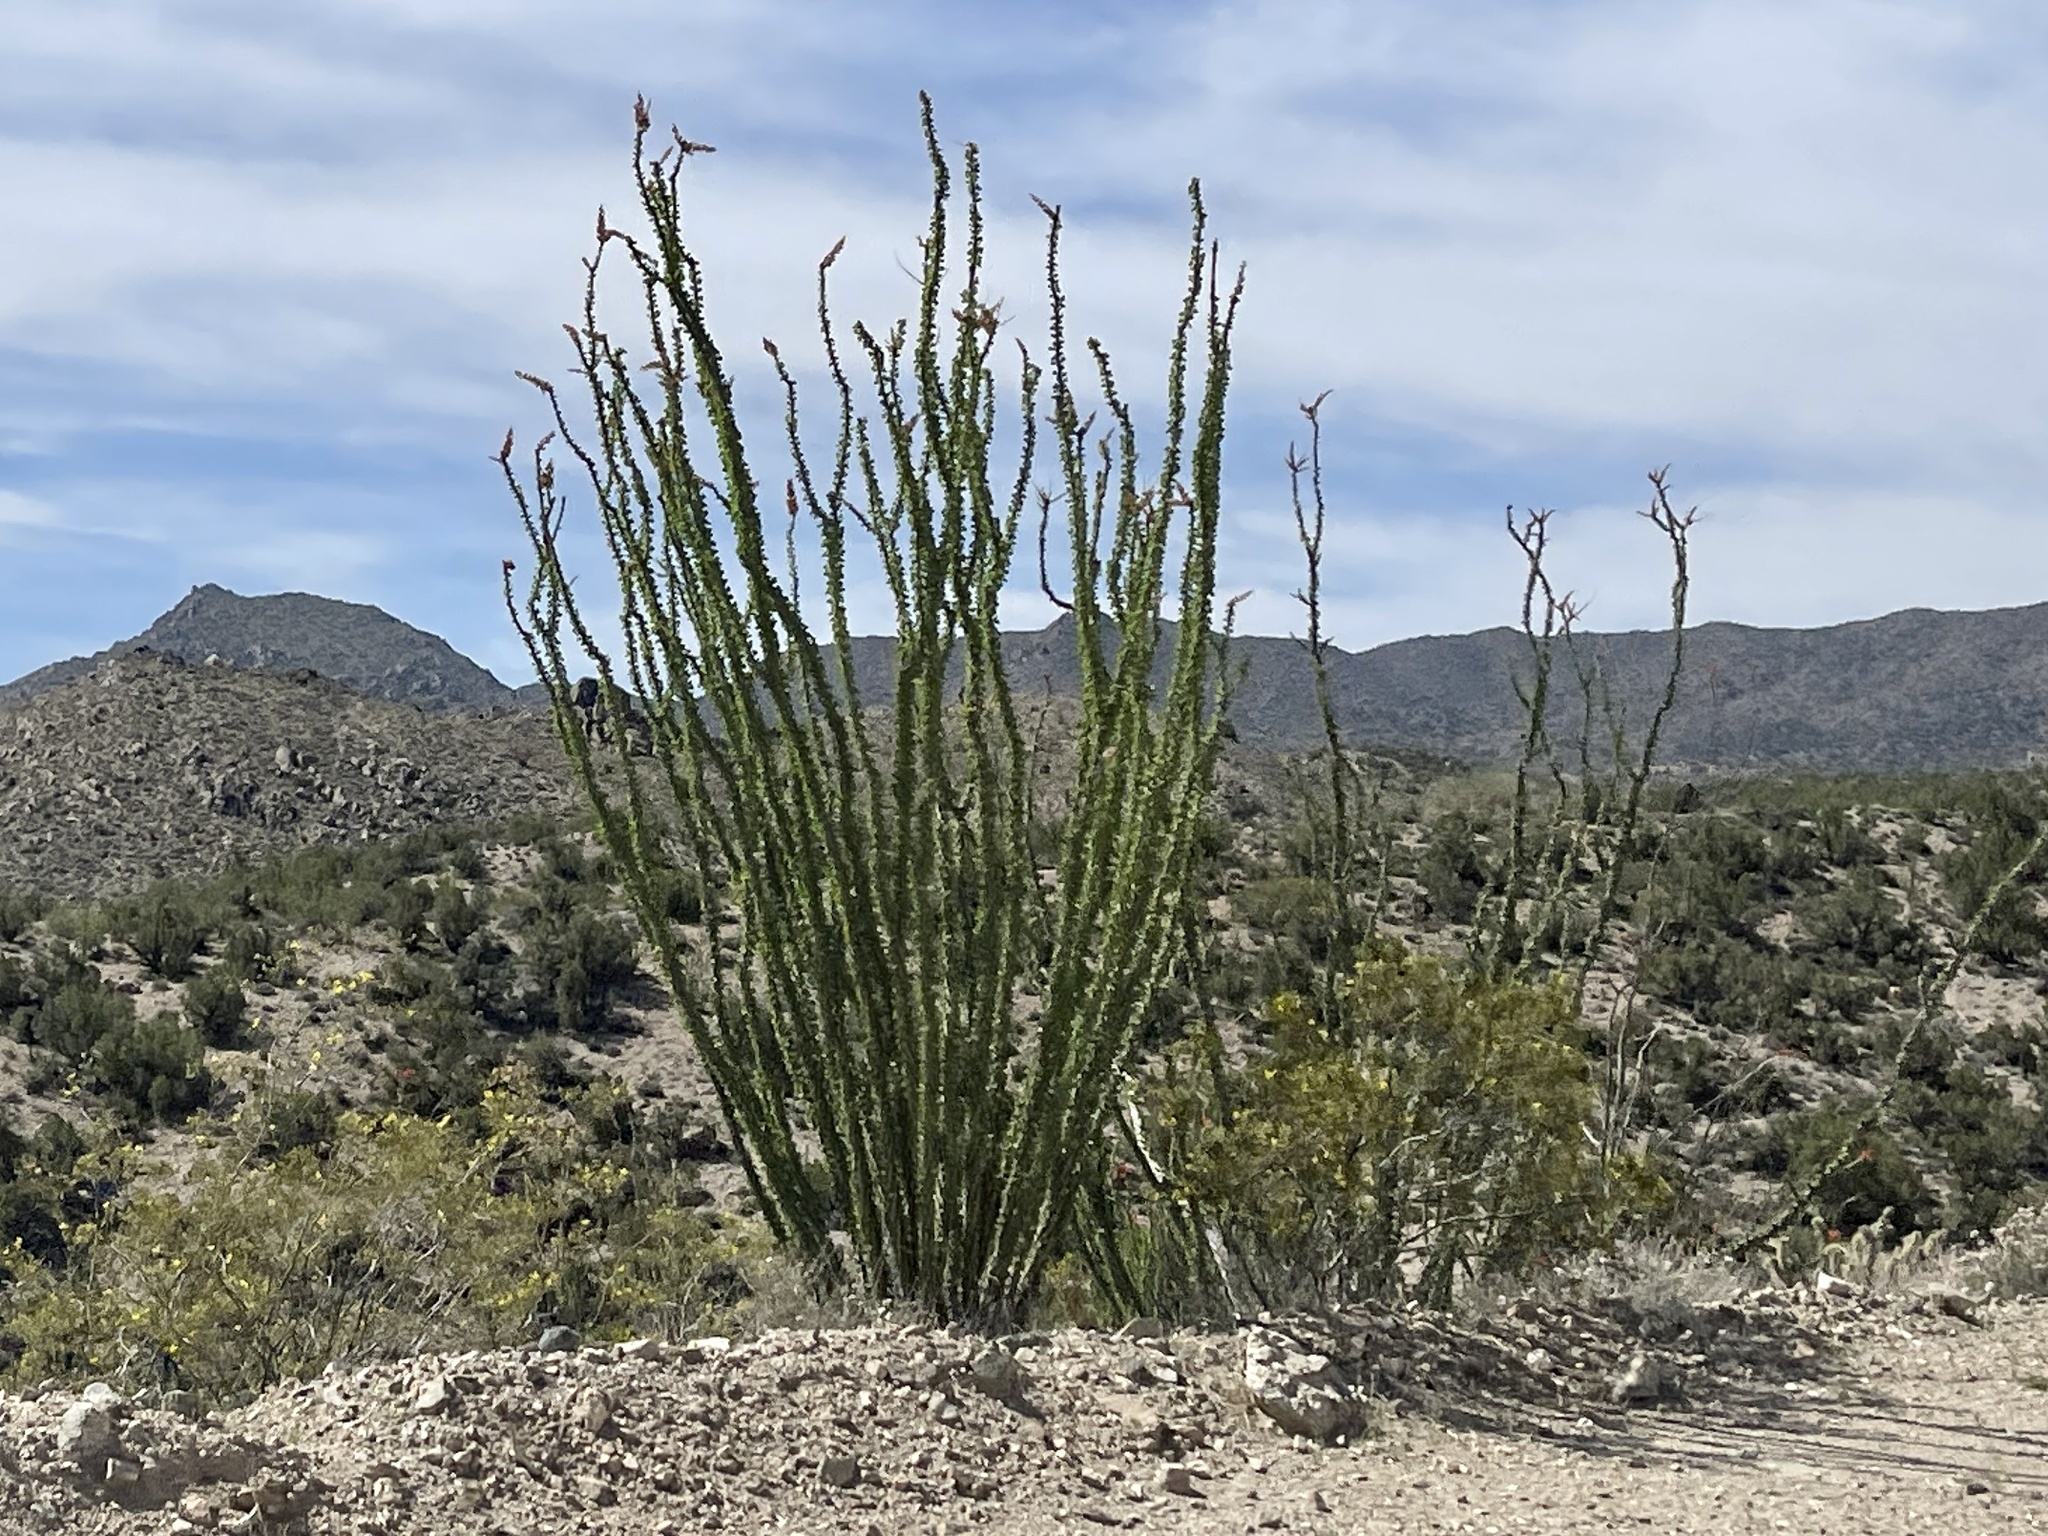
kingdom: Plantae
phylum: Tracheophyta
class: Magnoliopsida
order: Ericales
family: Fouquieriaceae
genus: Fouquieria
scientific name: Fouquieria splendens
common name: Vine-cactus
